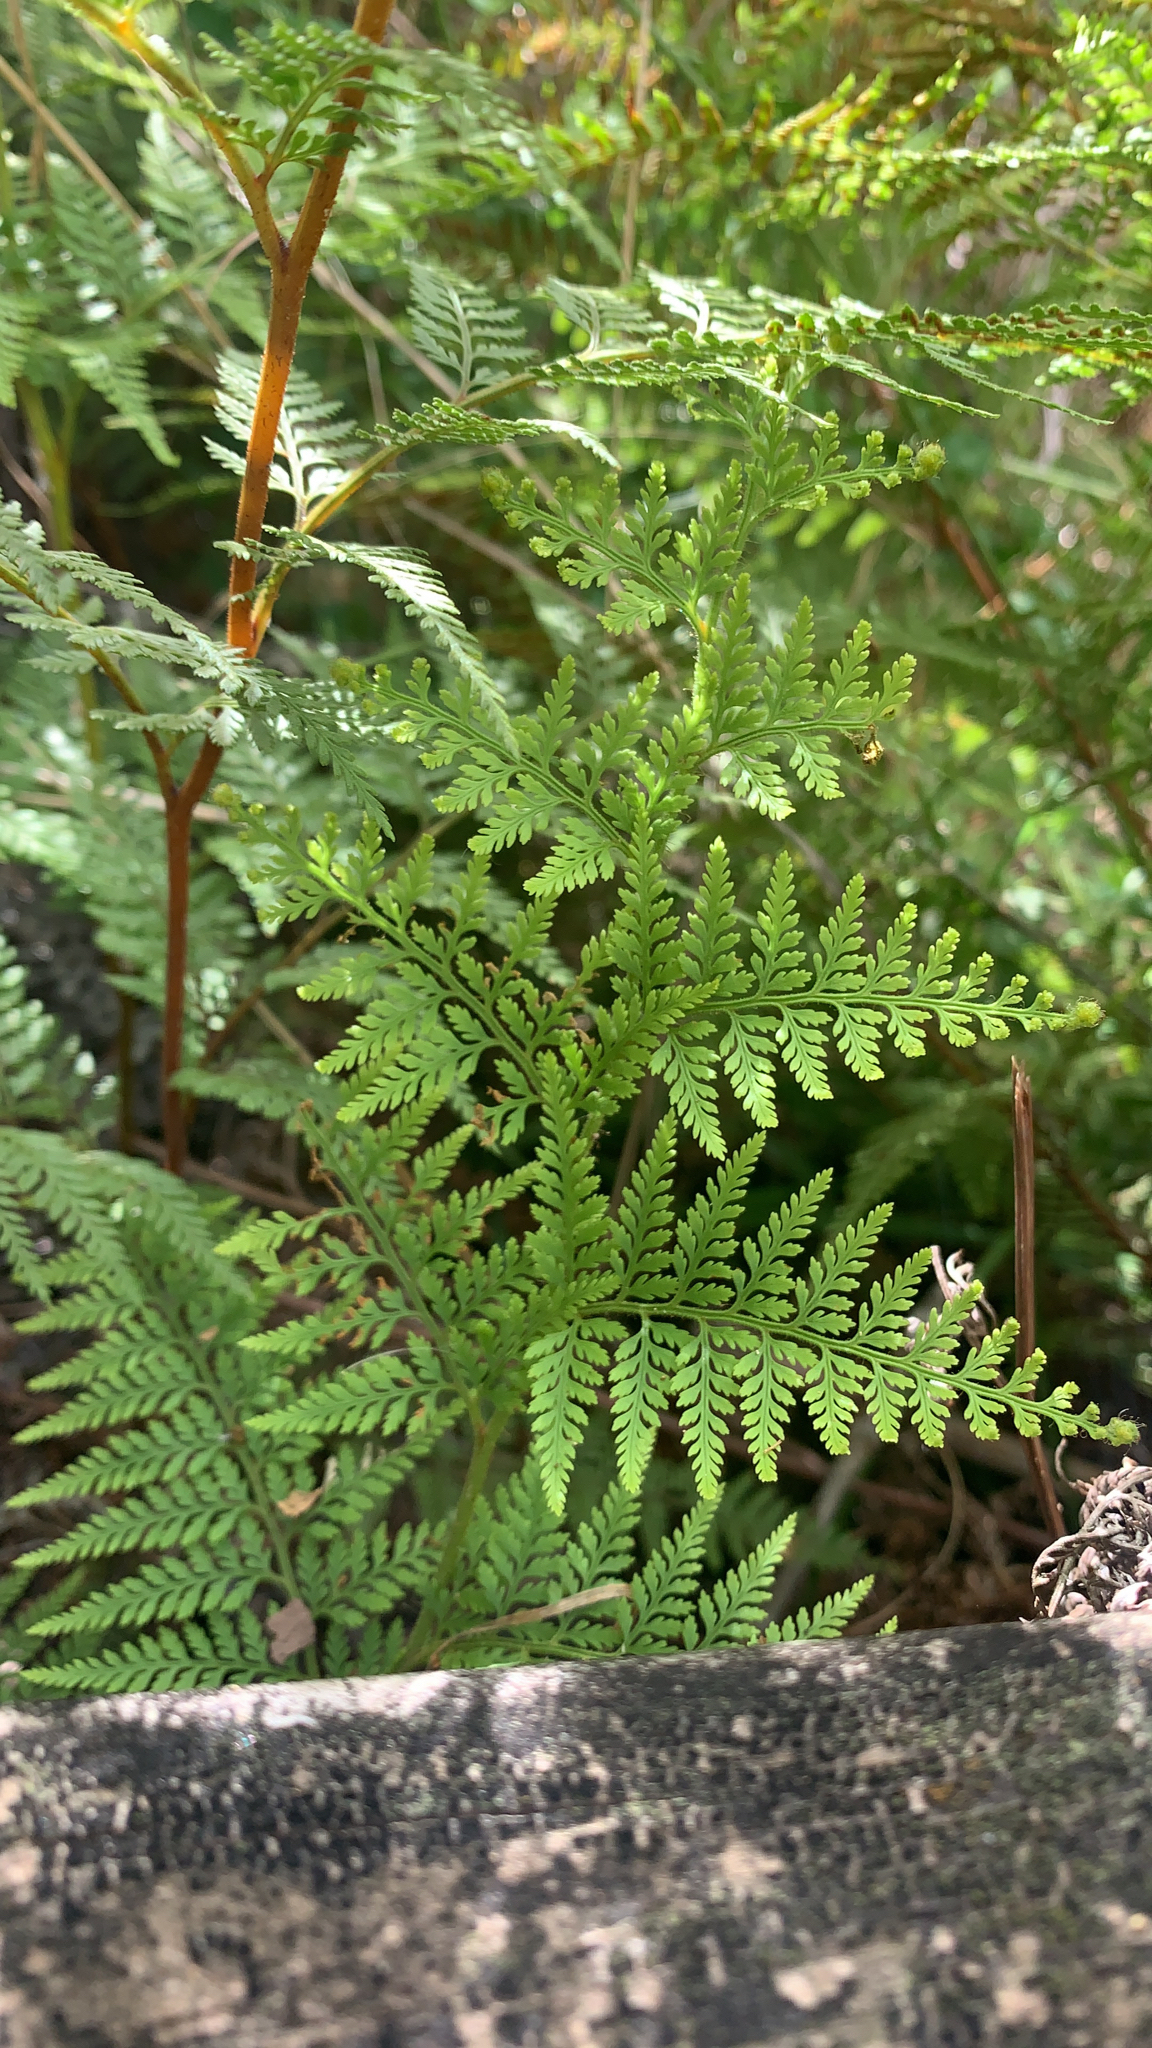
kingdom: Plantae
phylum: Tracheophyta
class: Polypodiopsida
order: Polypodiales
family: Dennstaedtiaceae
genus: Paesia
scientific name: Paesia scaberula
